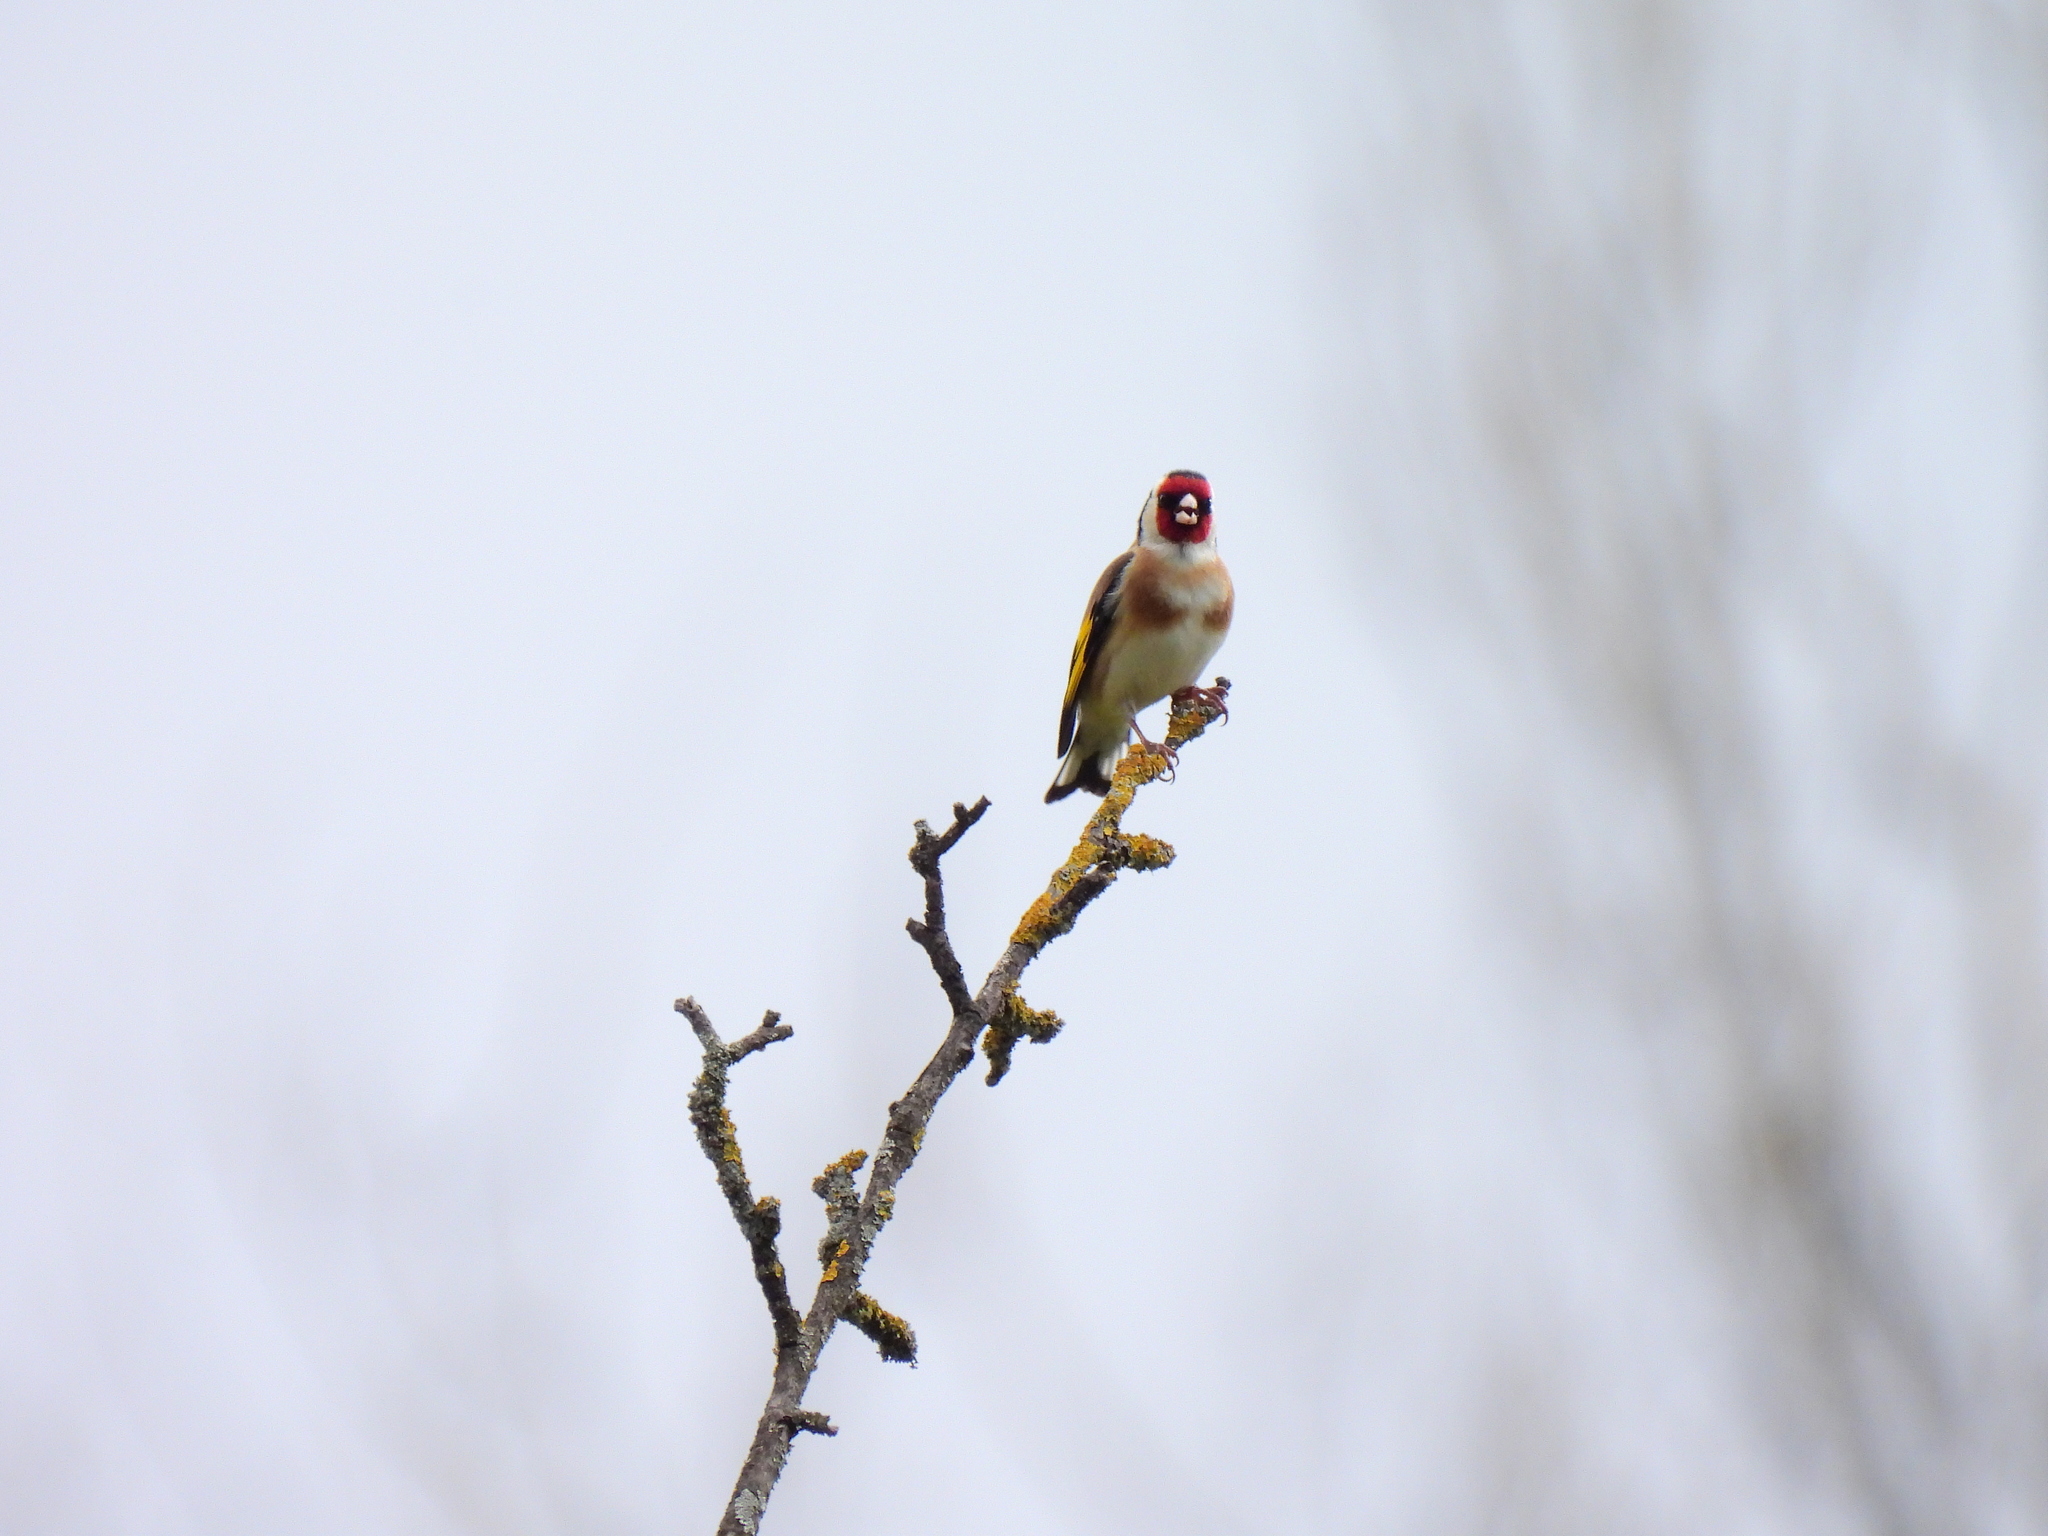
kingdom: Animalia
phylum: Chordata
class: Aves
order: Passeriformes
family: Fringillidae
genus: Carduelis
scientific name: Carduelis carduelis
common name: European goldfinch
